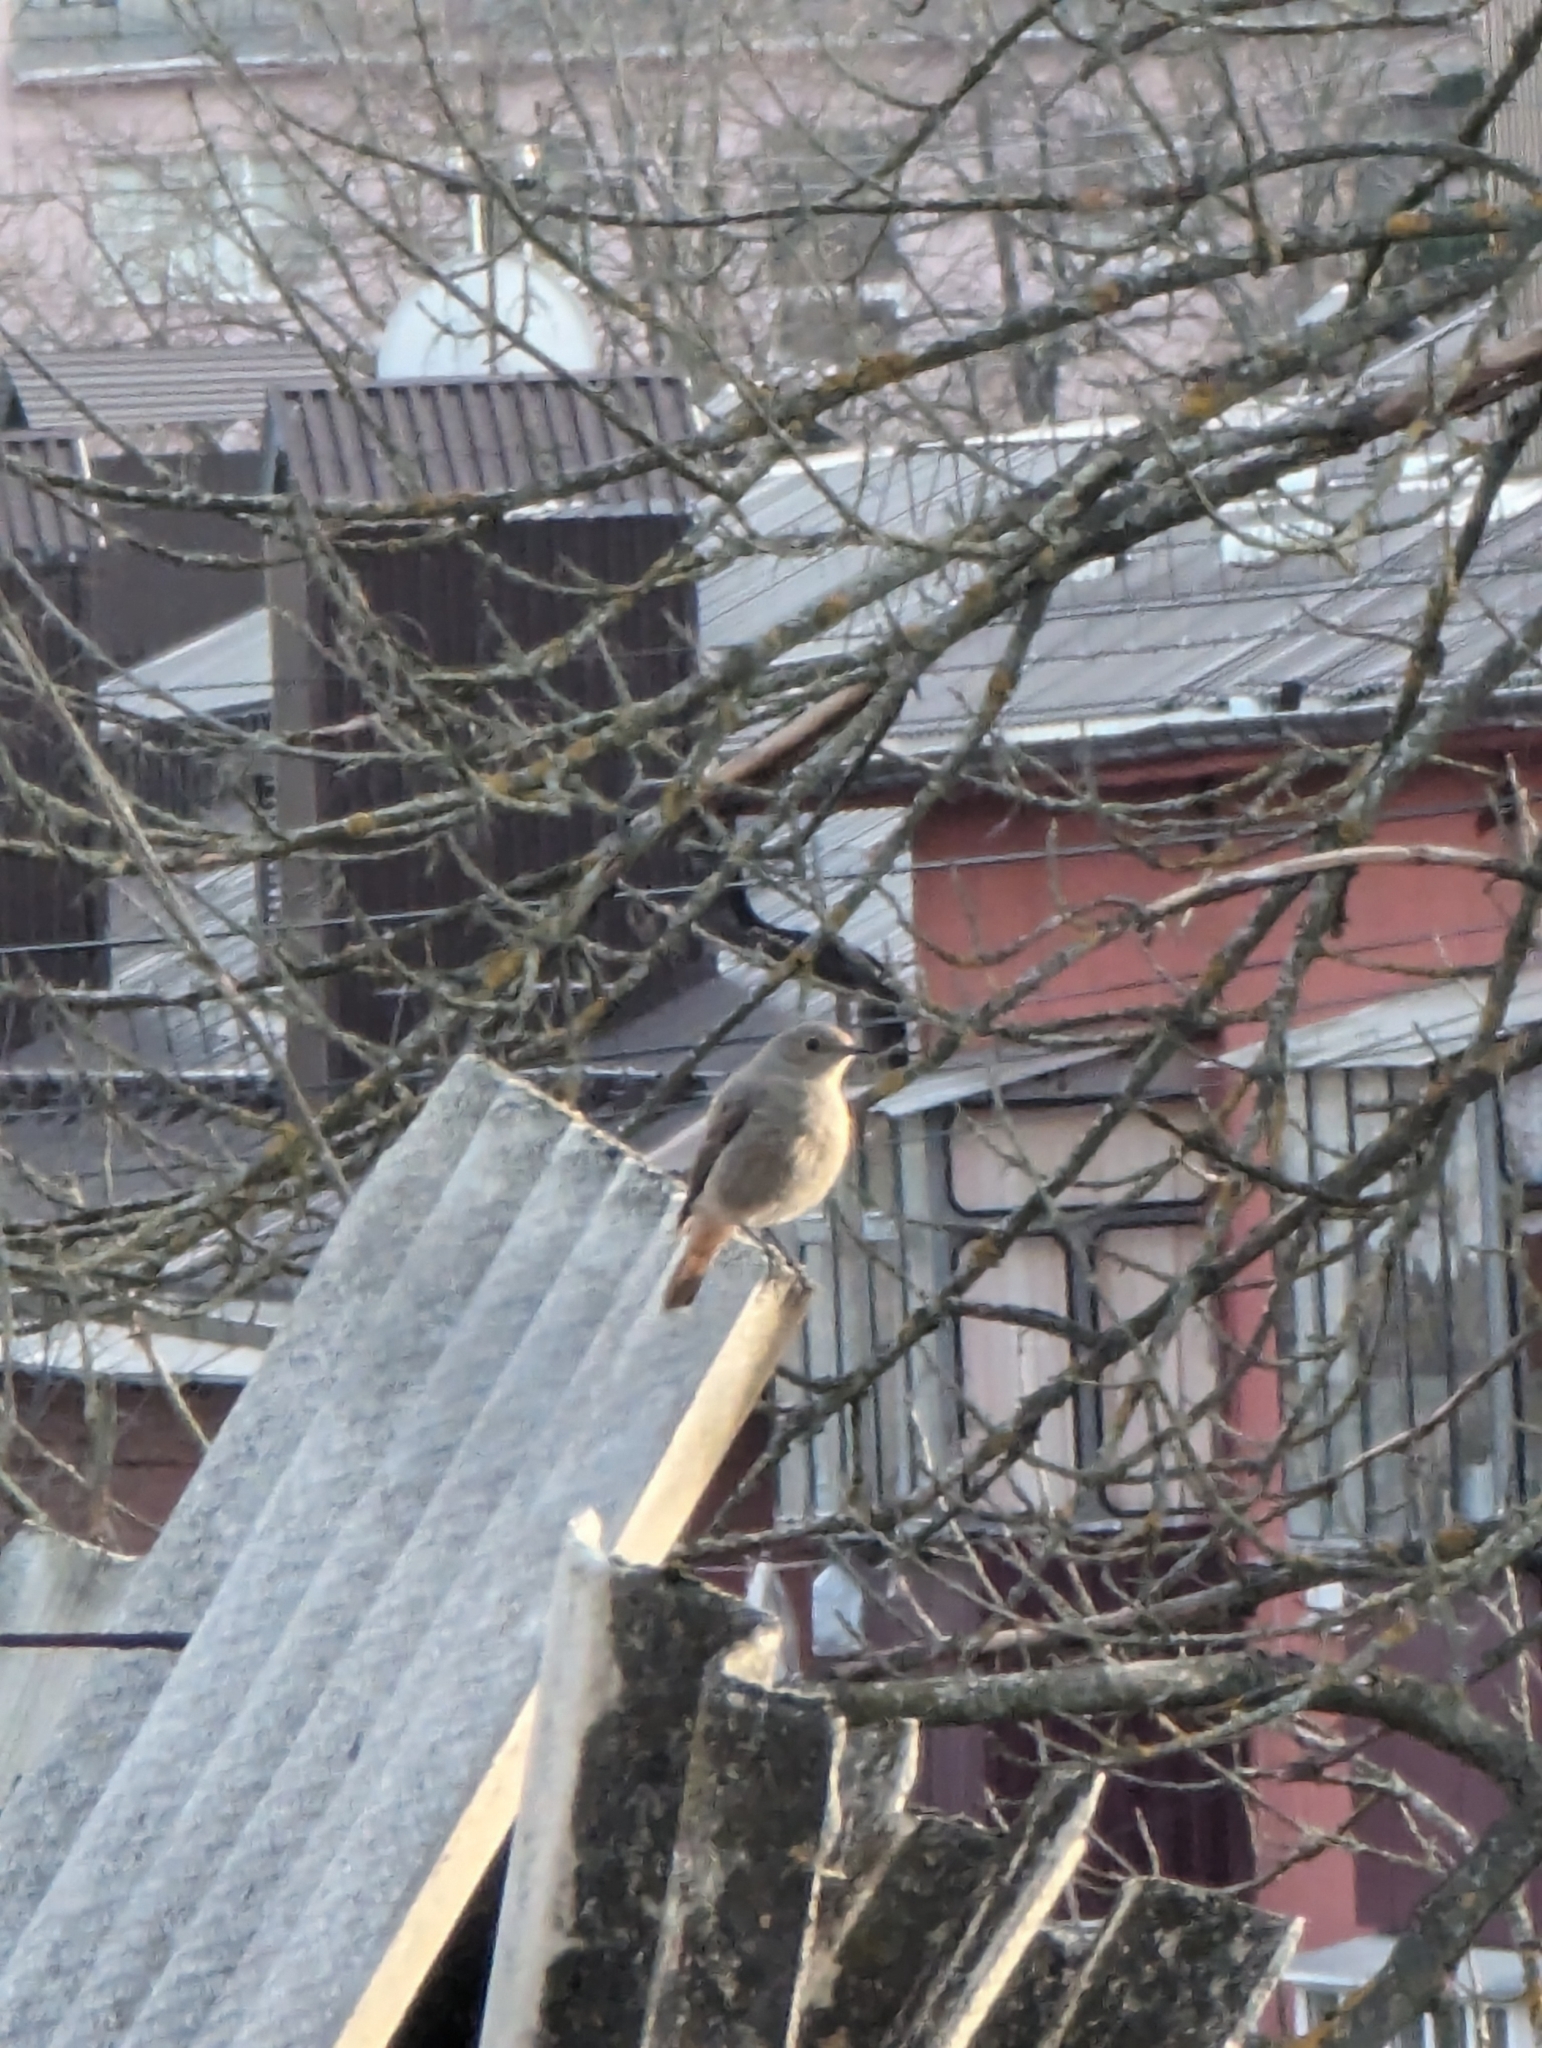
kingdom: Animalia
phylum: Chordata
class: Aves
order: Passeriformes
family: Muscicapidae
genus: Phoenicurus
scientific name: Phoenicurus ochruros
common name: Black redstart
